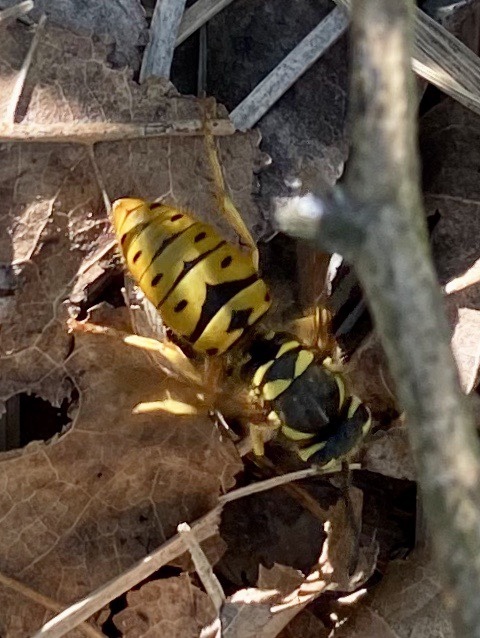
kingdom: Animalia
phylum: Arthropoda
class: Insecta
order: Hymenoptera
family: Vespidae
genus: Vespula
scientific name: Vespula maculifrons
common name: Eastern yellowjacket
